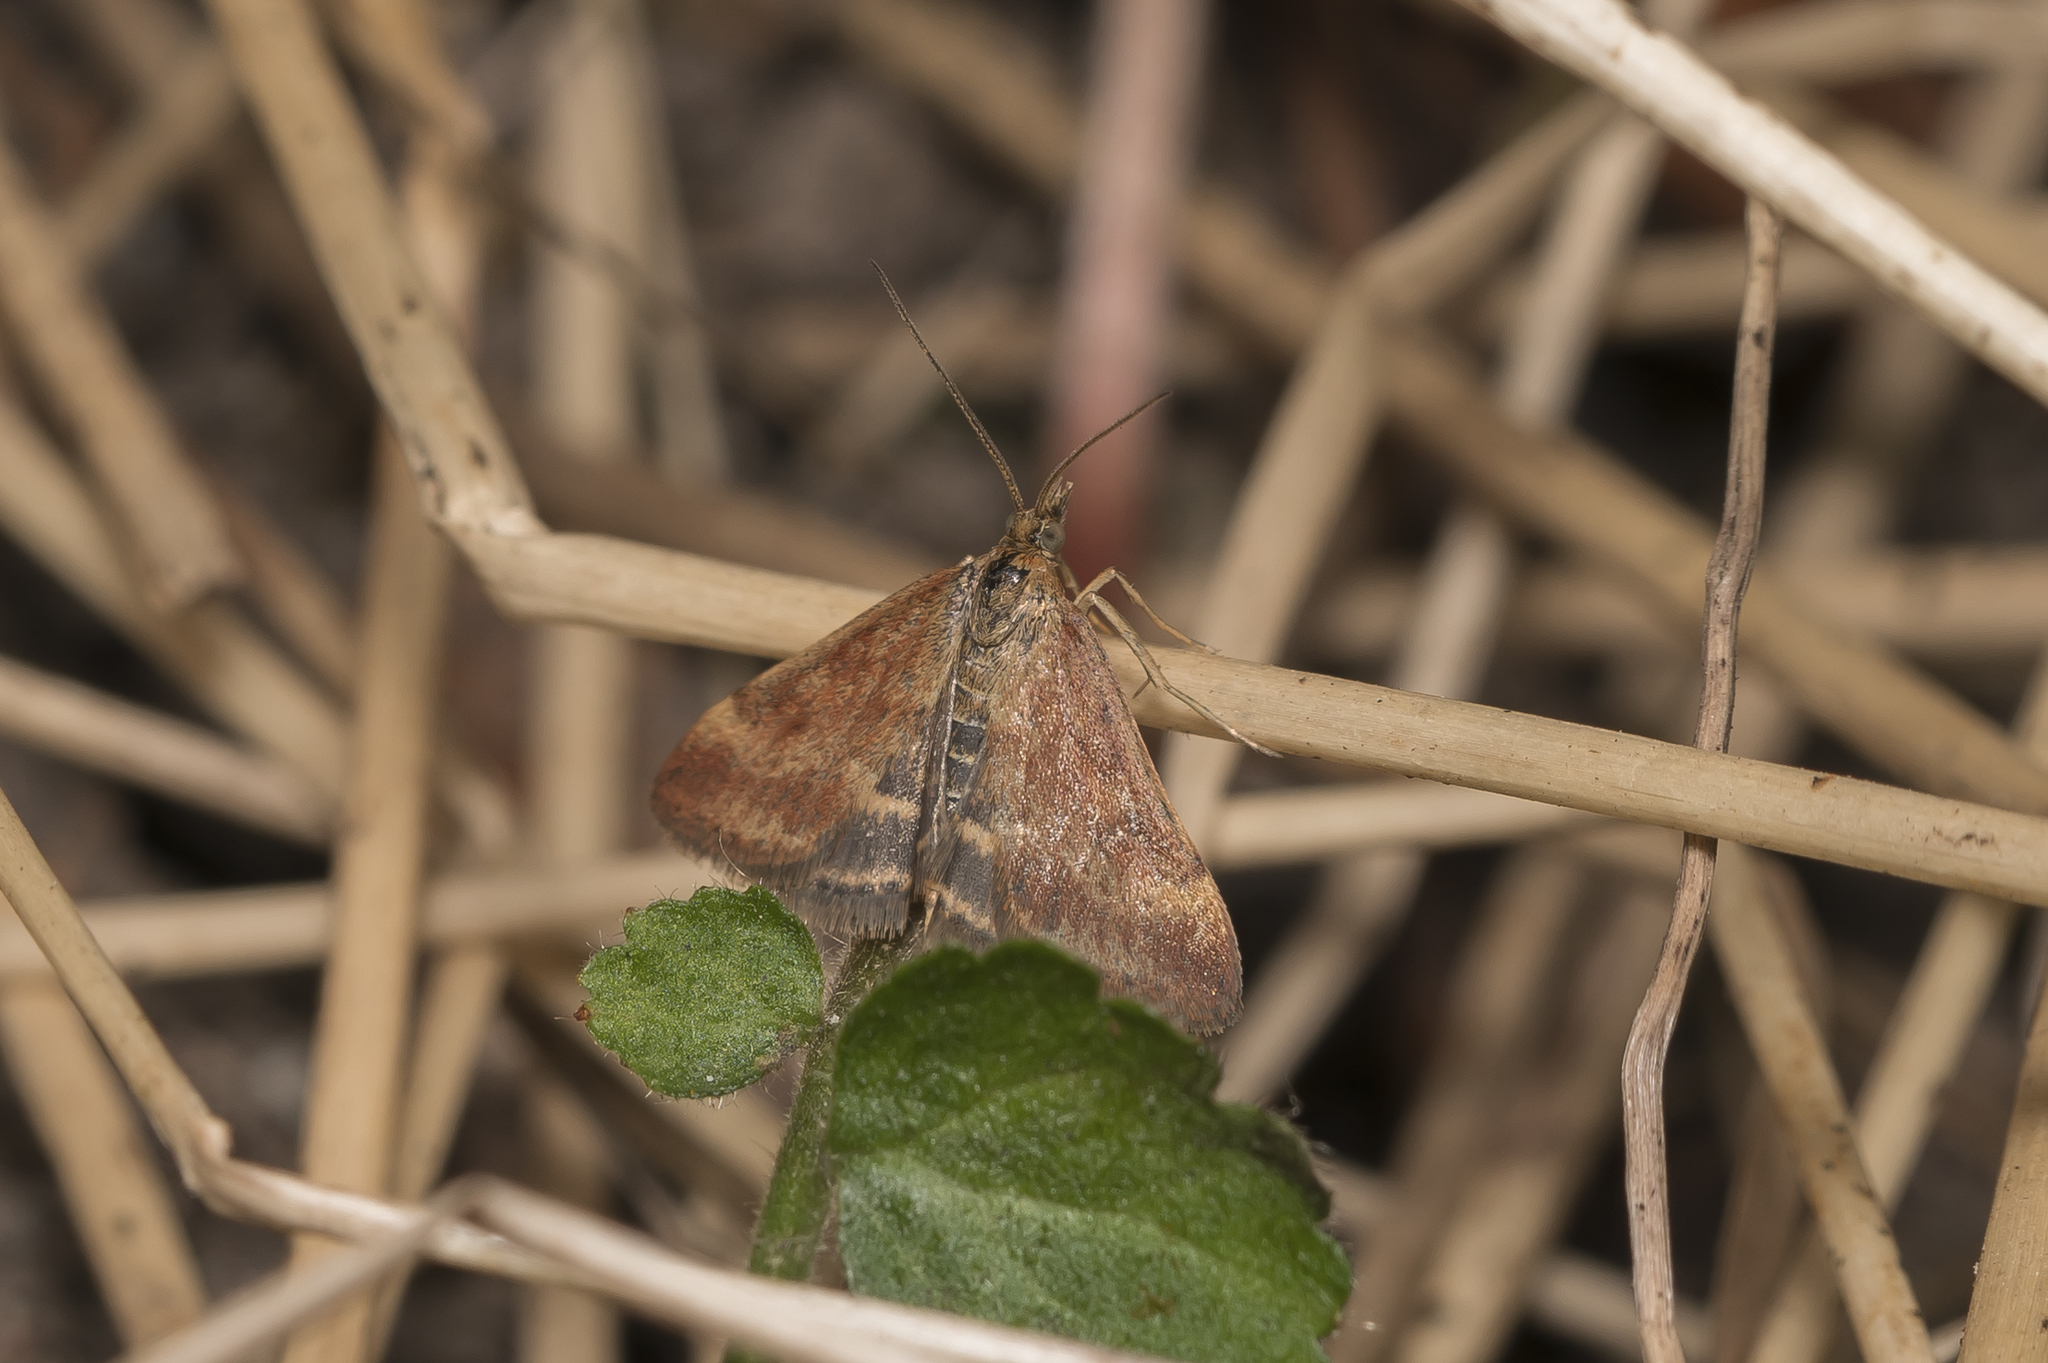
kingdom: Animalia
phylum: Arthropoda
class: Insecta
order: Lepidoptera
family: Crambidae
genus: Pyrausta
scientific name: Pyrausta despicata
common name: Straw-barred pearl
